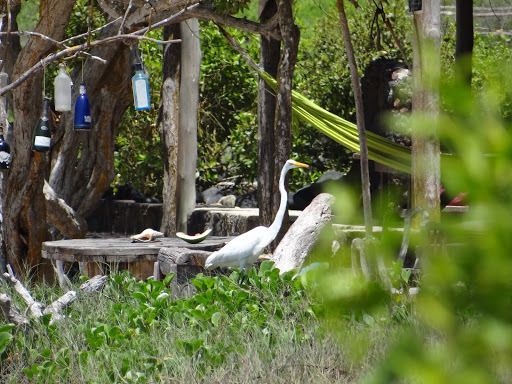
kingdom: Animalia
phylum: Chordata
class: Aves
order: Pelecaniformes
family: Ardeidae
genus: Ardea
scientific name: Ardea alba
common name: Great egret
